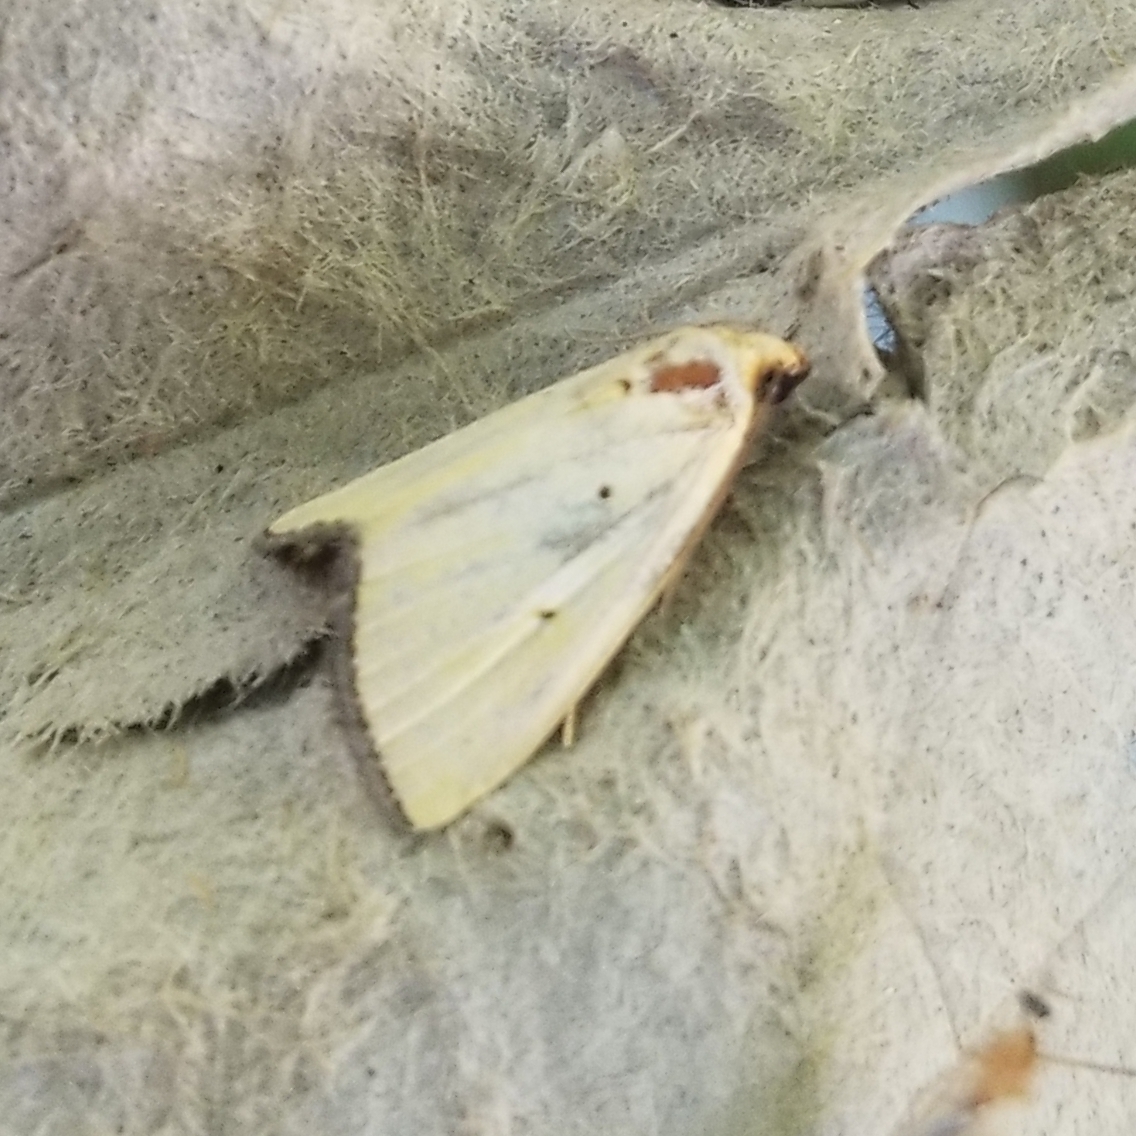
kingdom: Animalia
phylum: Arthropoda
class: Insecta
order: Lepidoptera
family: Noctuidae
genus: Marimatha
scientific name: Marimatha nigrofimbria
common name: Black-bordered lemon moth
